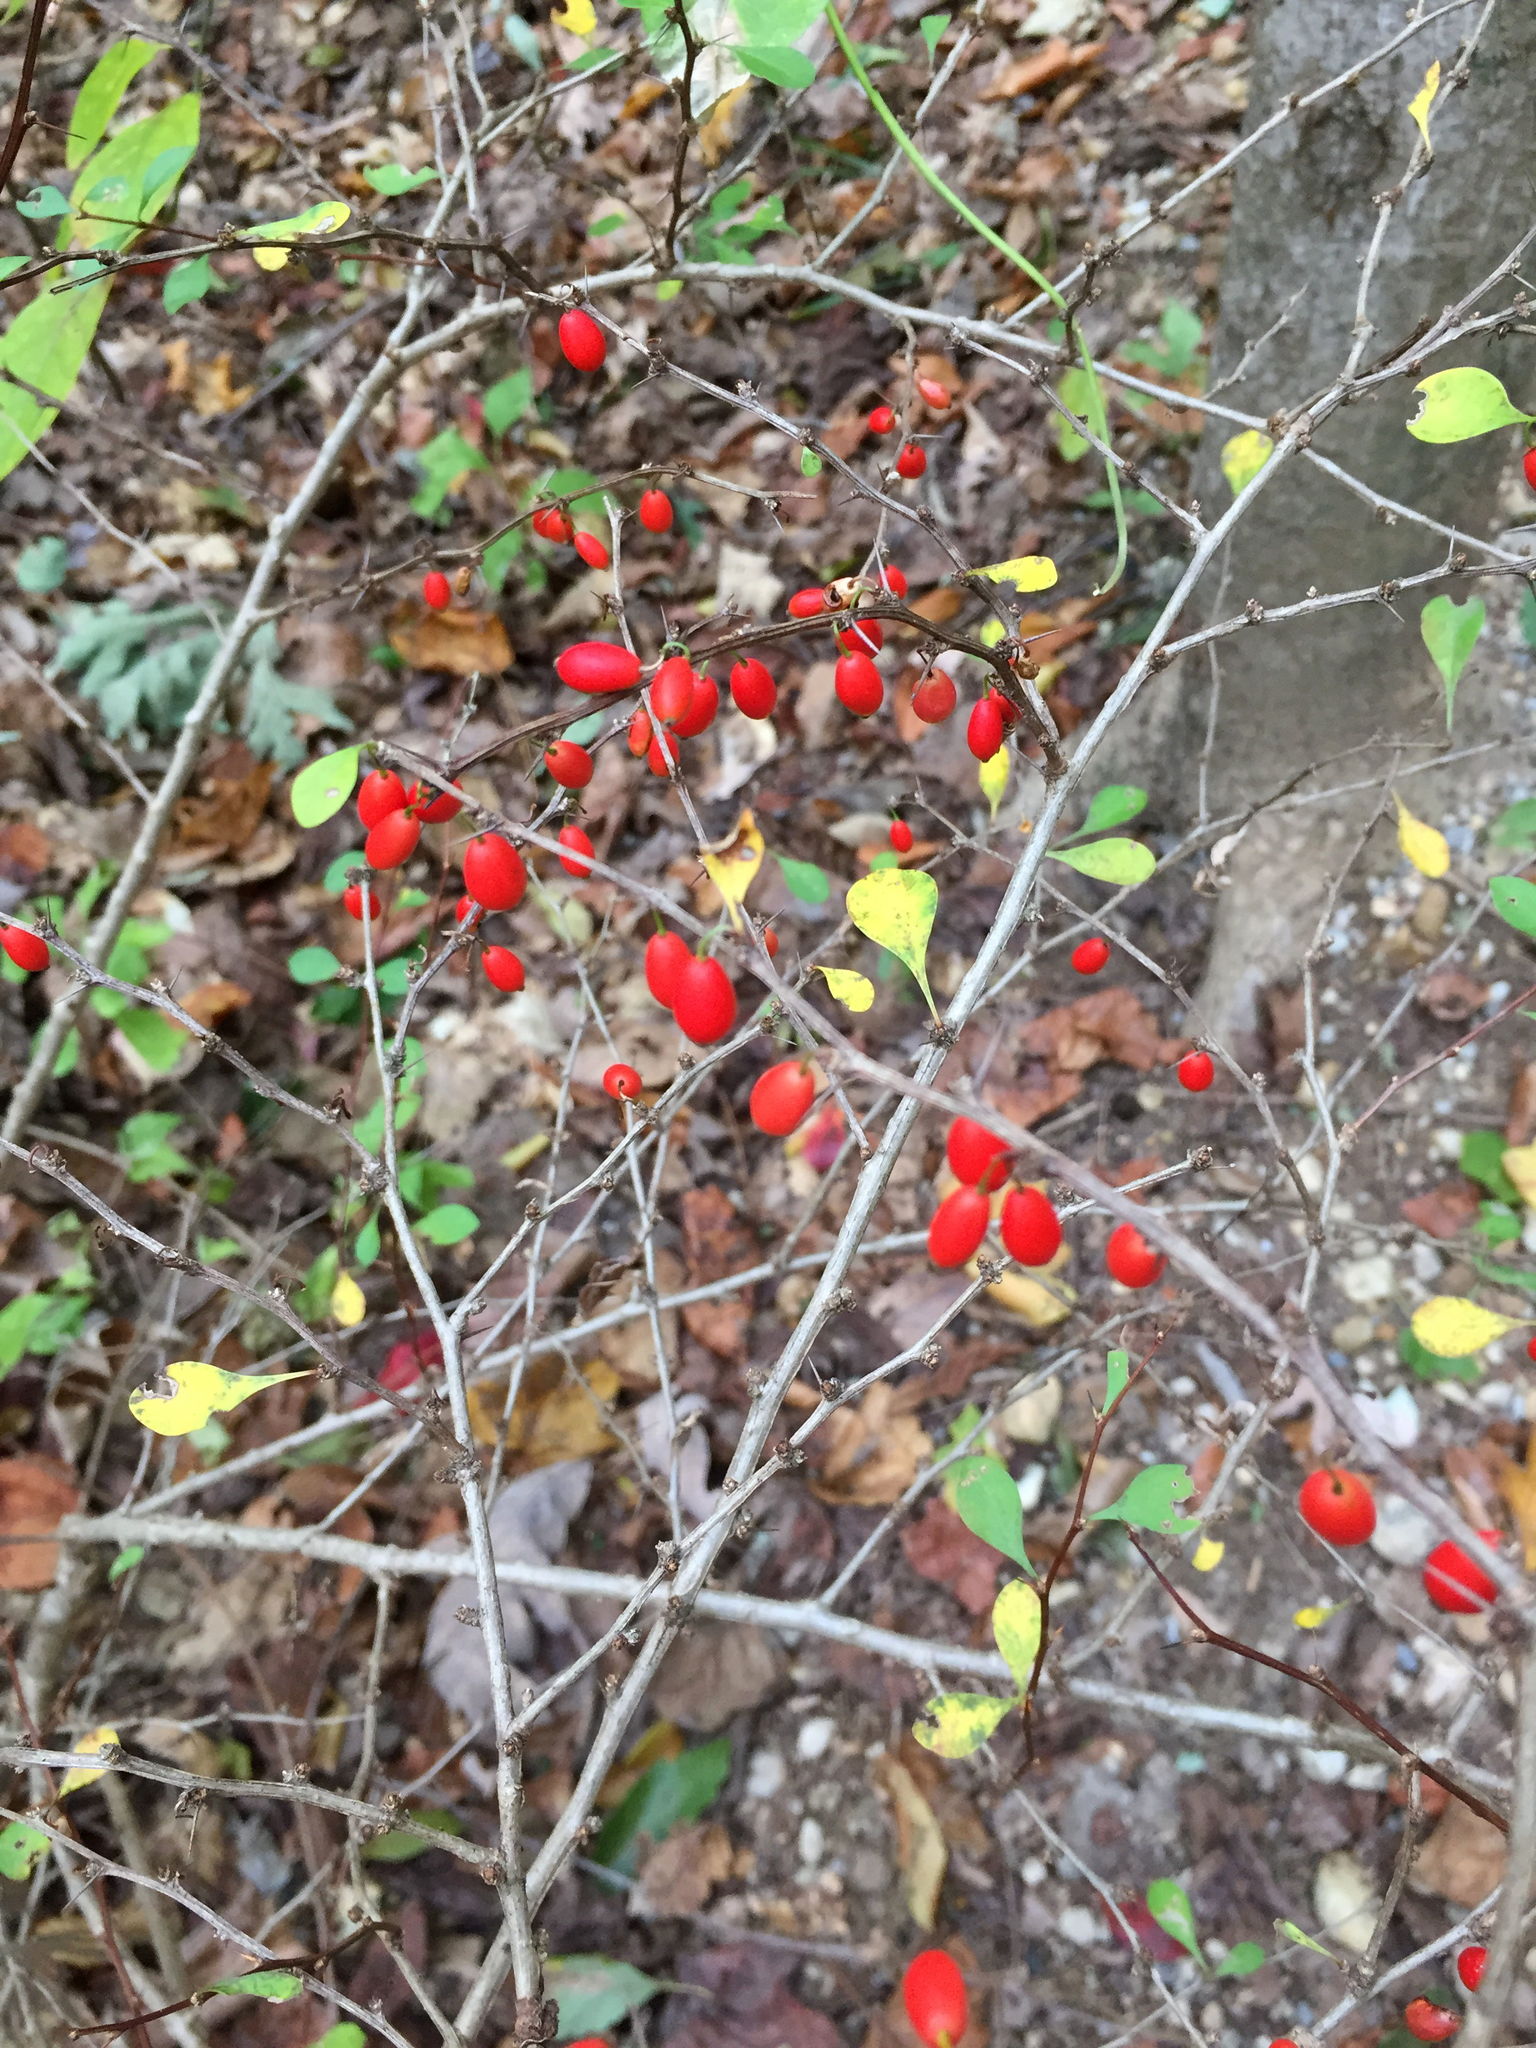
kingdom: Plantae
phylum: Tracheophyta
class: Magnoliopsida
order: Ranunculales
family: Berberidaceae
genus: Berberis
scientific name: Berberis thunbergii
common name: Japanese barberry
